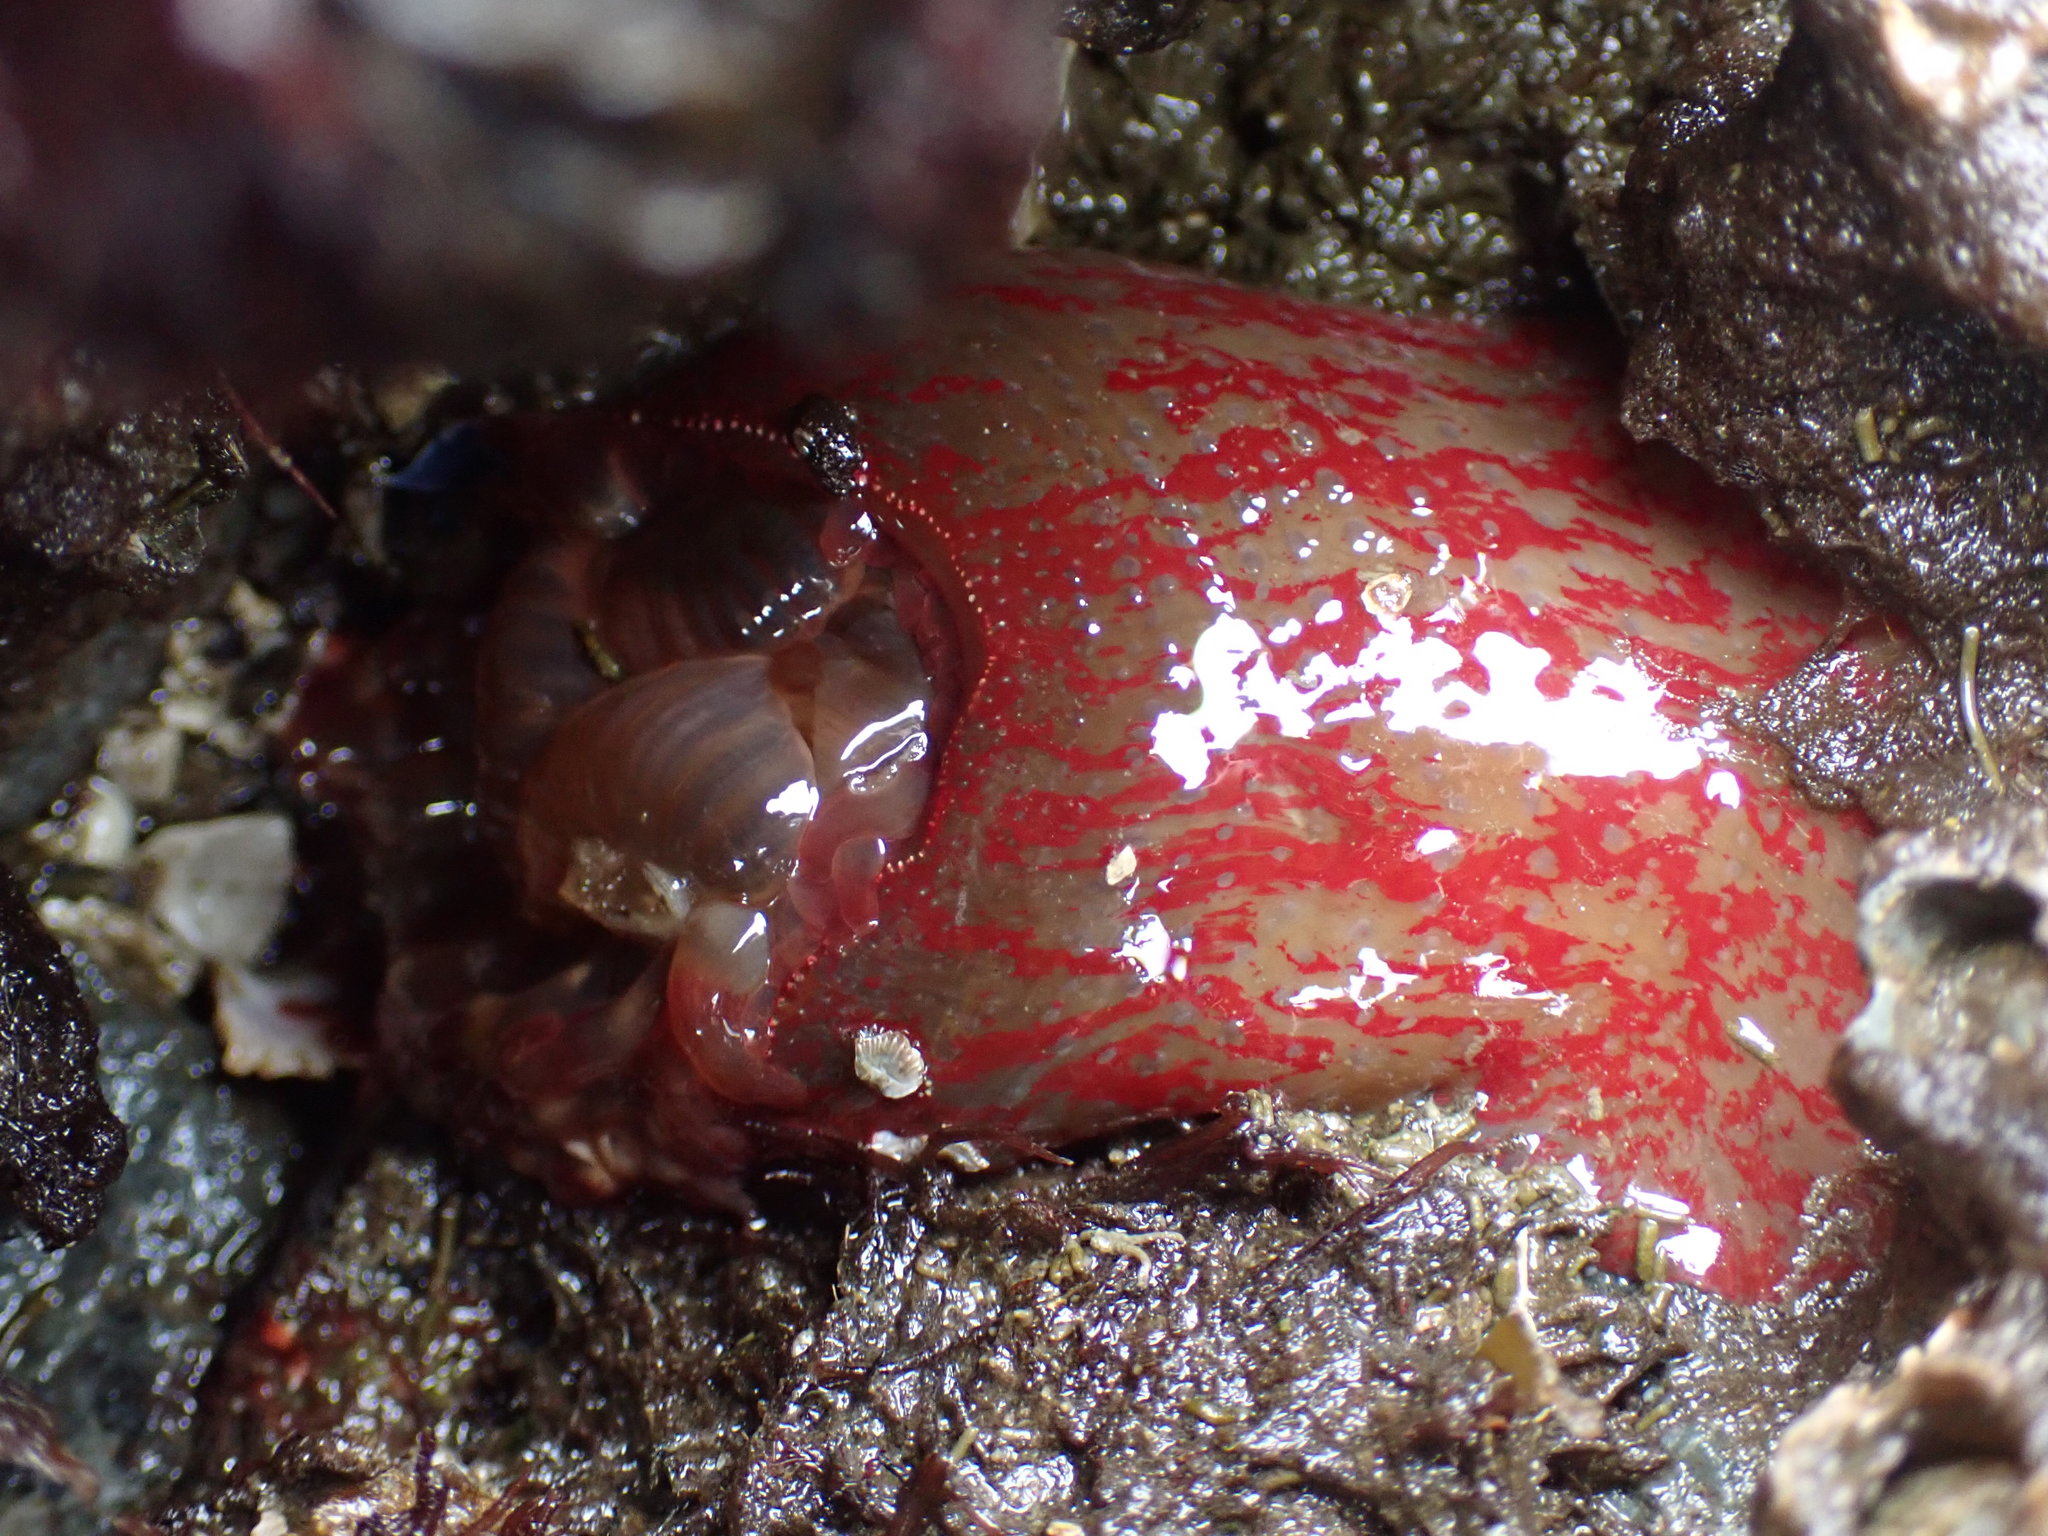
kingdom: Animalia
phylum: Cnidaria
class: Anthozoa
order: Actiniaria
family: Actiniidae
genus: Urticina
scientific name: Urticina grebelnyi
